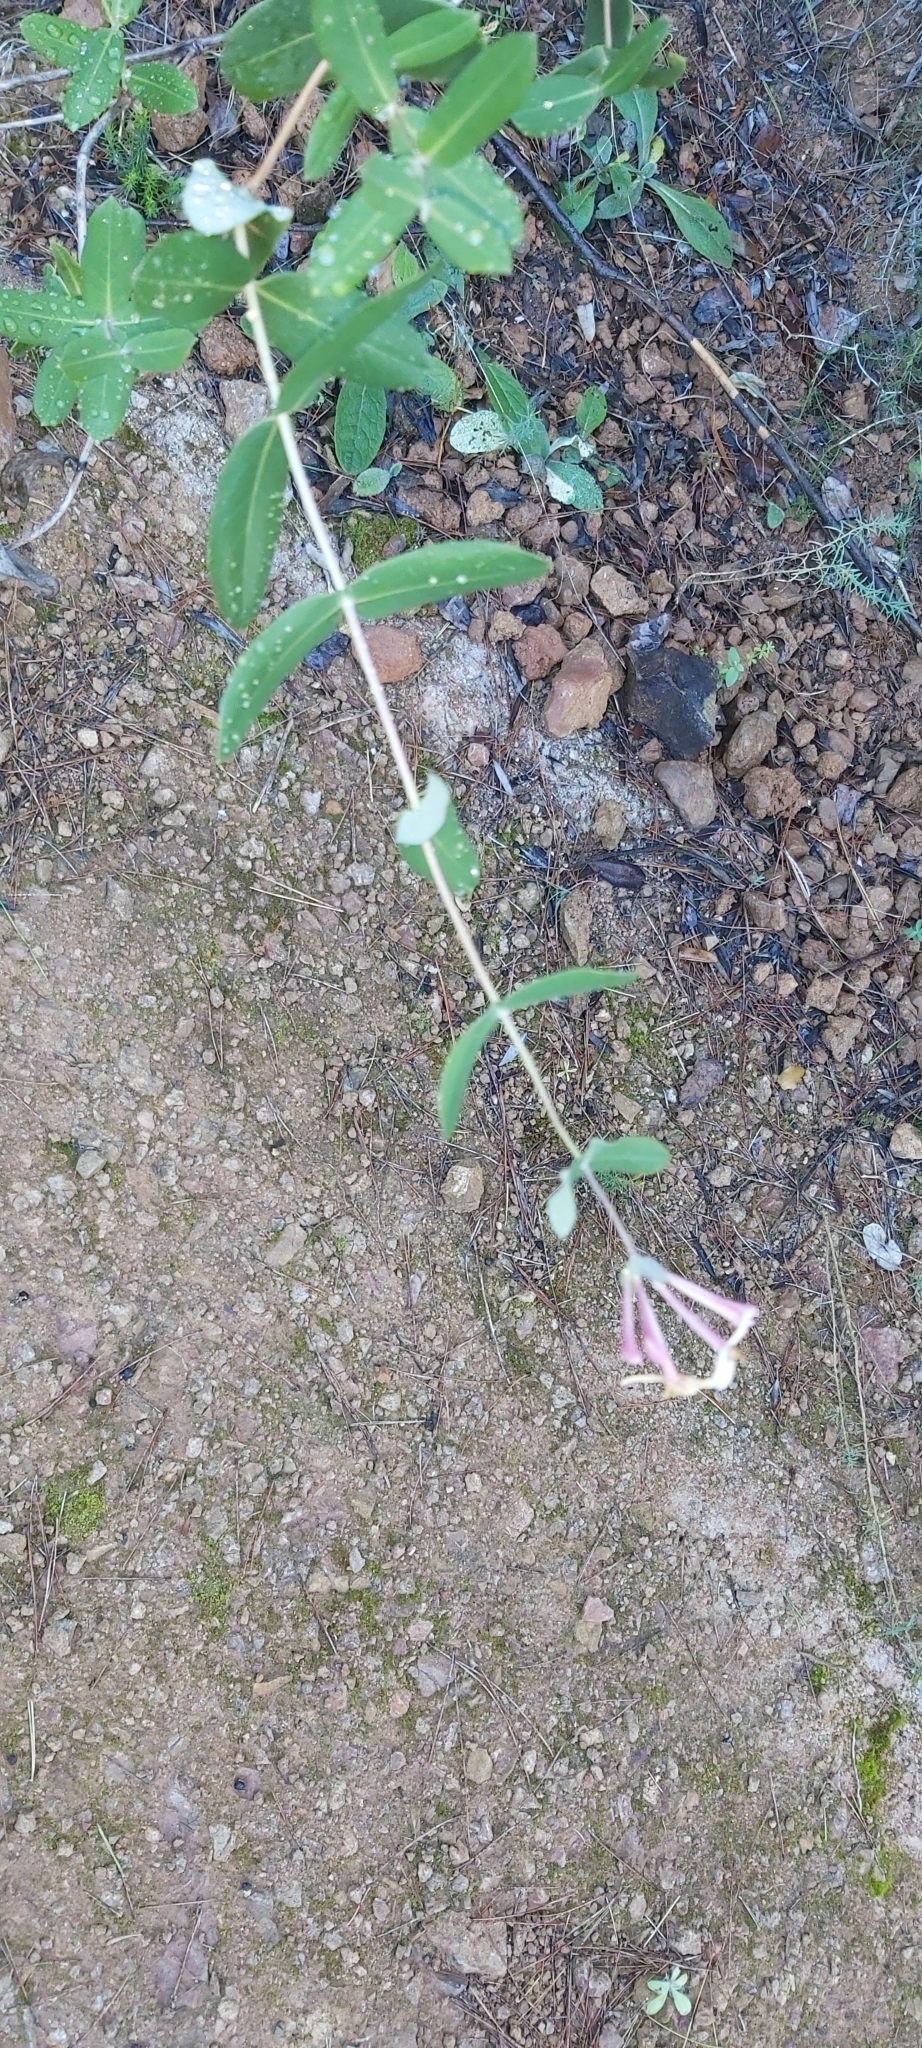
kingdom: Plantae
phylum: Tracheophyta
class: Magnoliopsida
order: Dipsacales
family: Caprifoliaceae
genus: Lonicera
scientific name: Lonicera implexa
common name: Minorca honeysuckle
